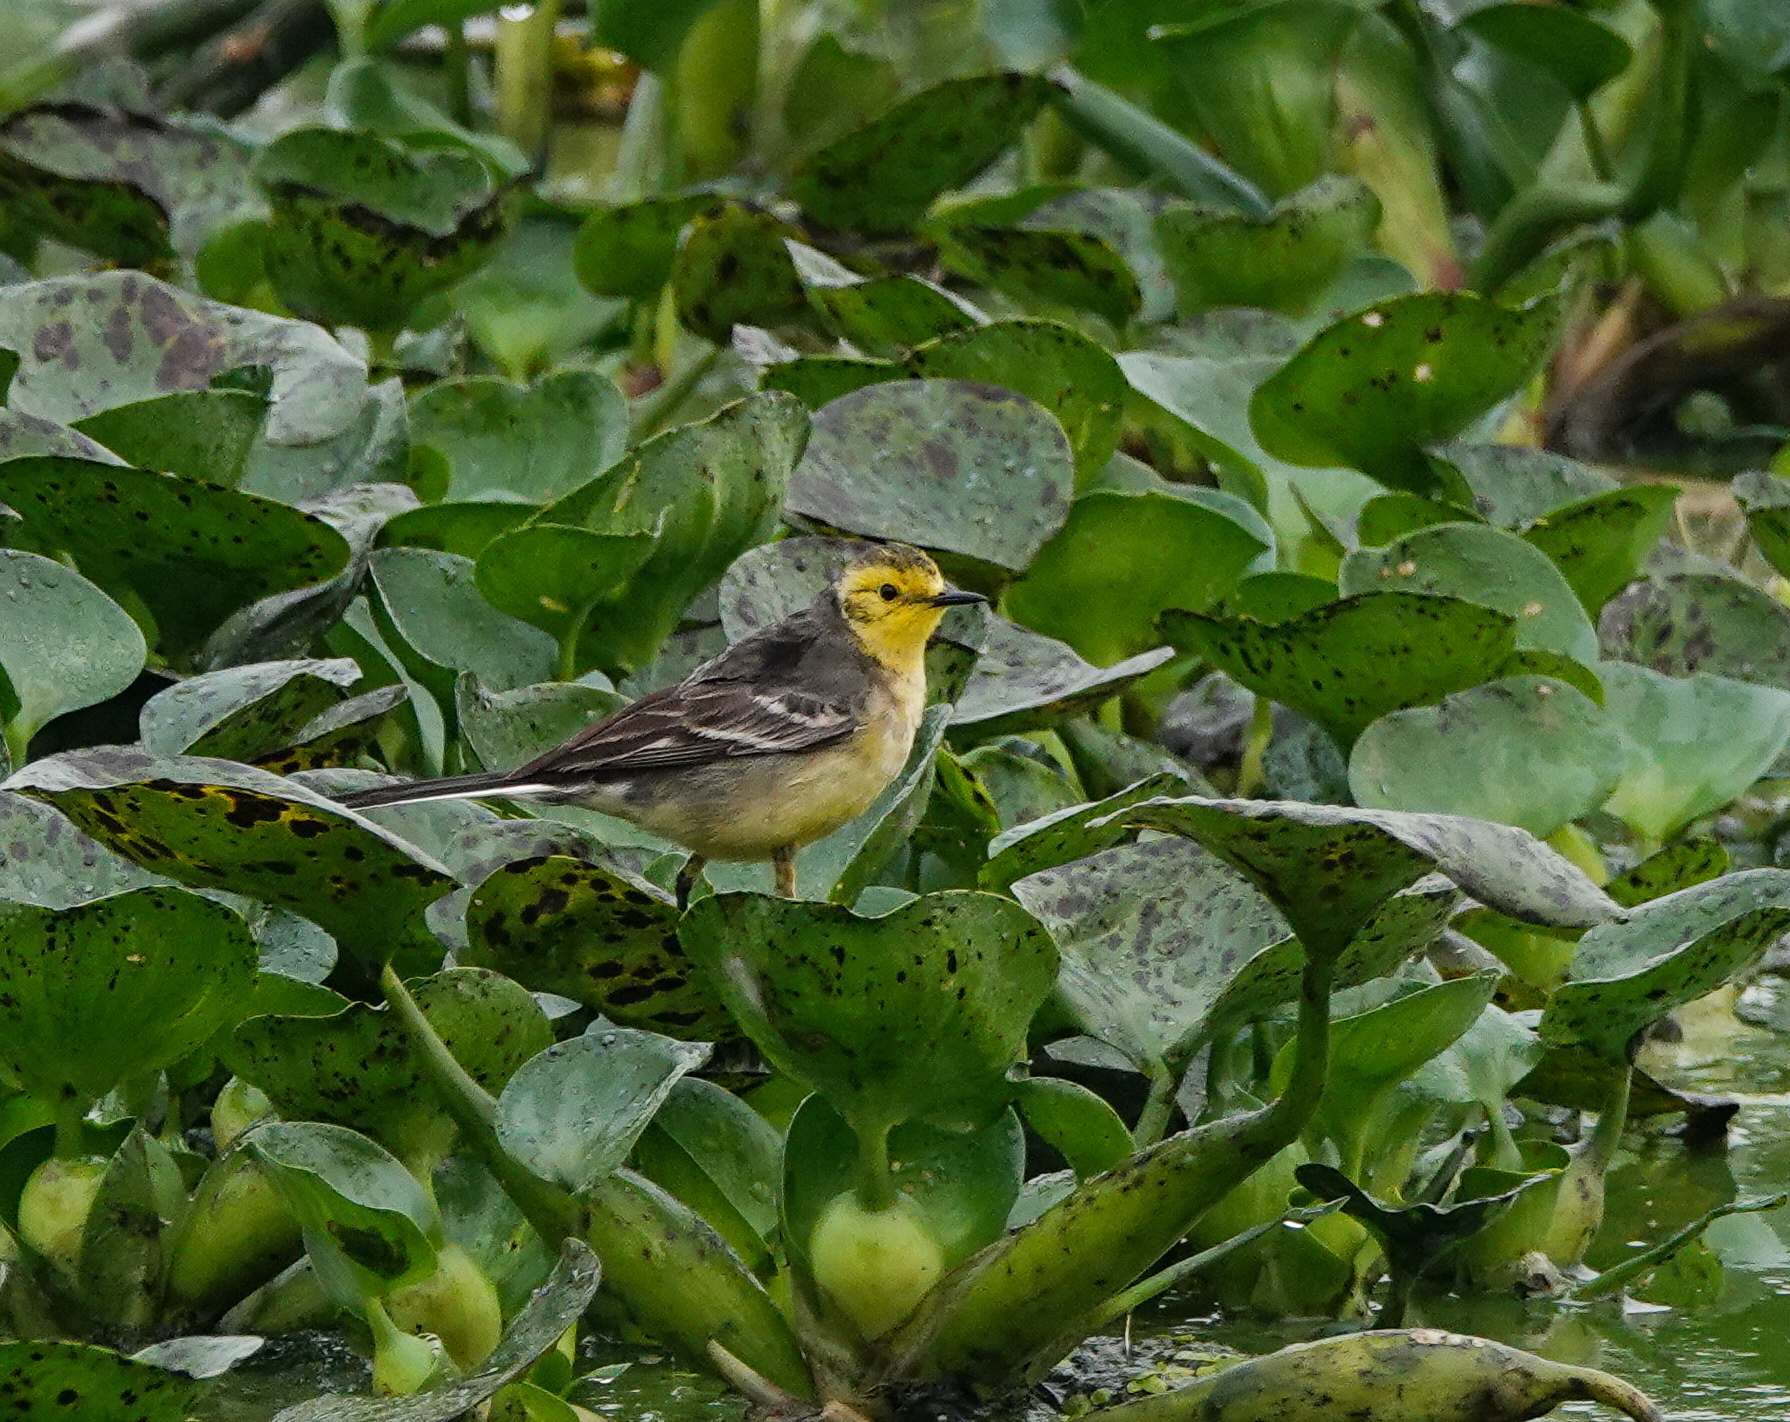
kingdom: Animalia
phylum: Chordata
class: Aves
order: Passeriformes
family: Motacillidae
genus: Motacilla
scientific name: Motacilla citreola
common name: Citrine wagtail
